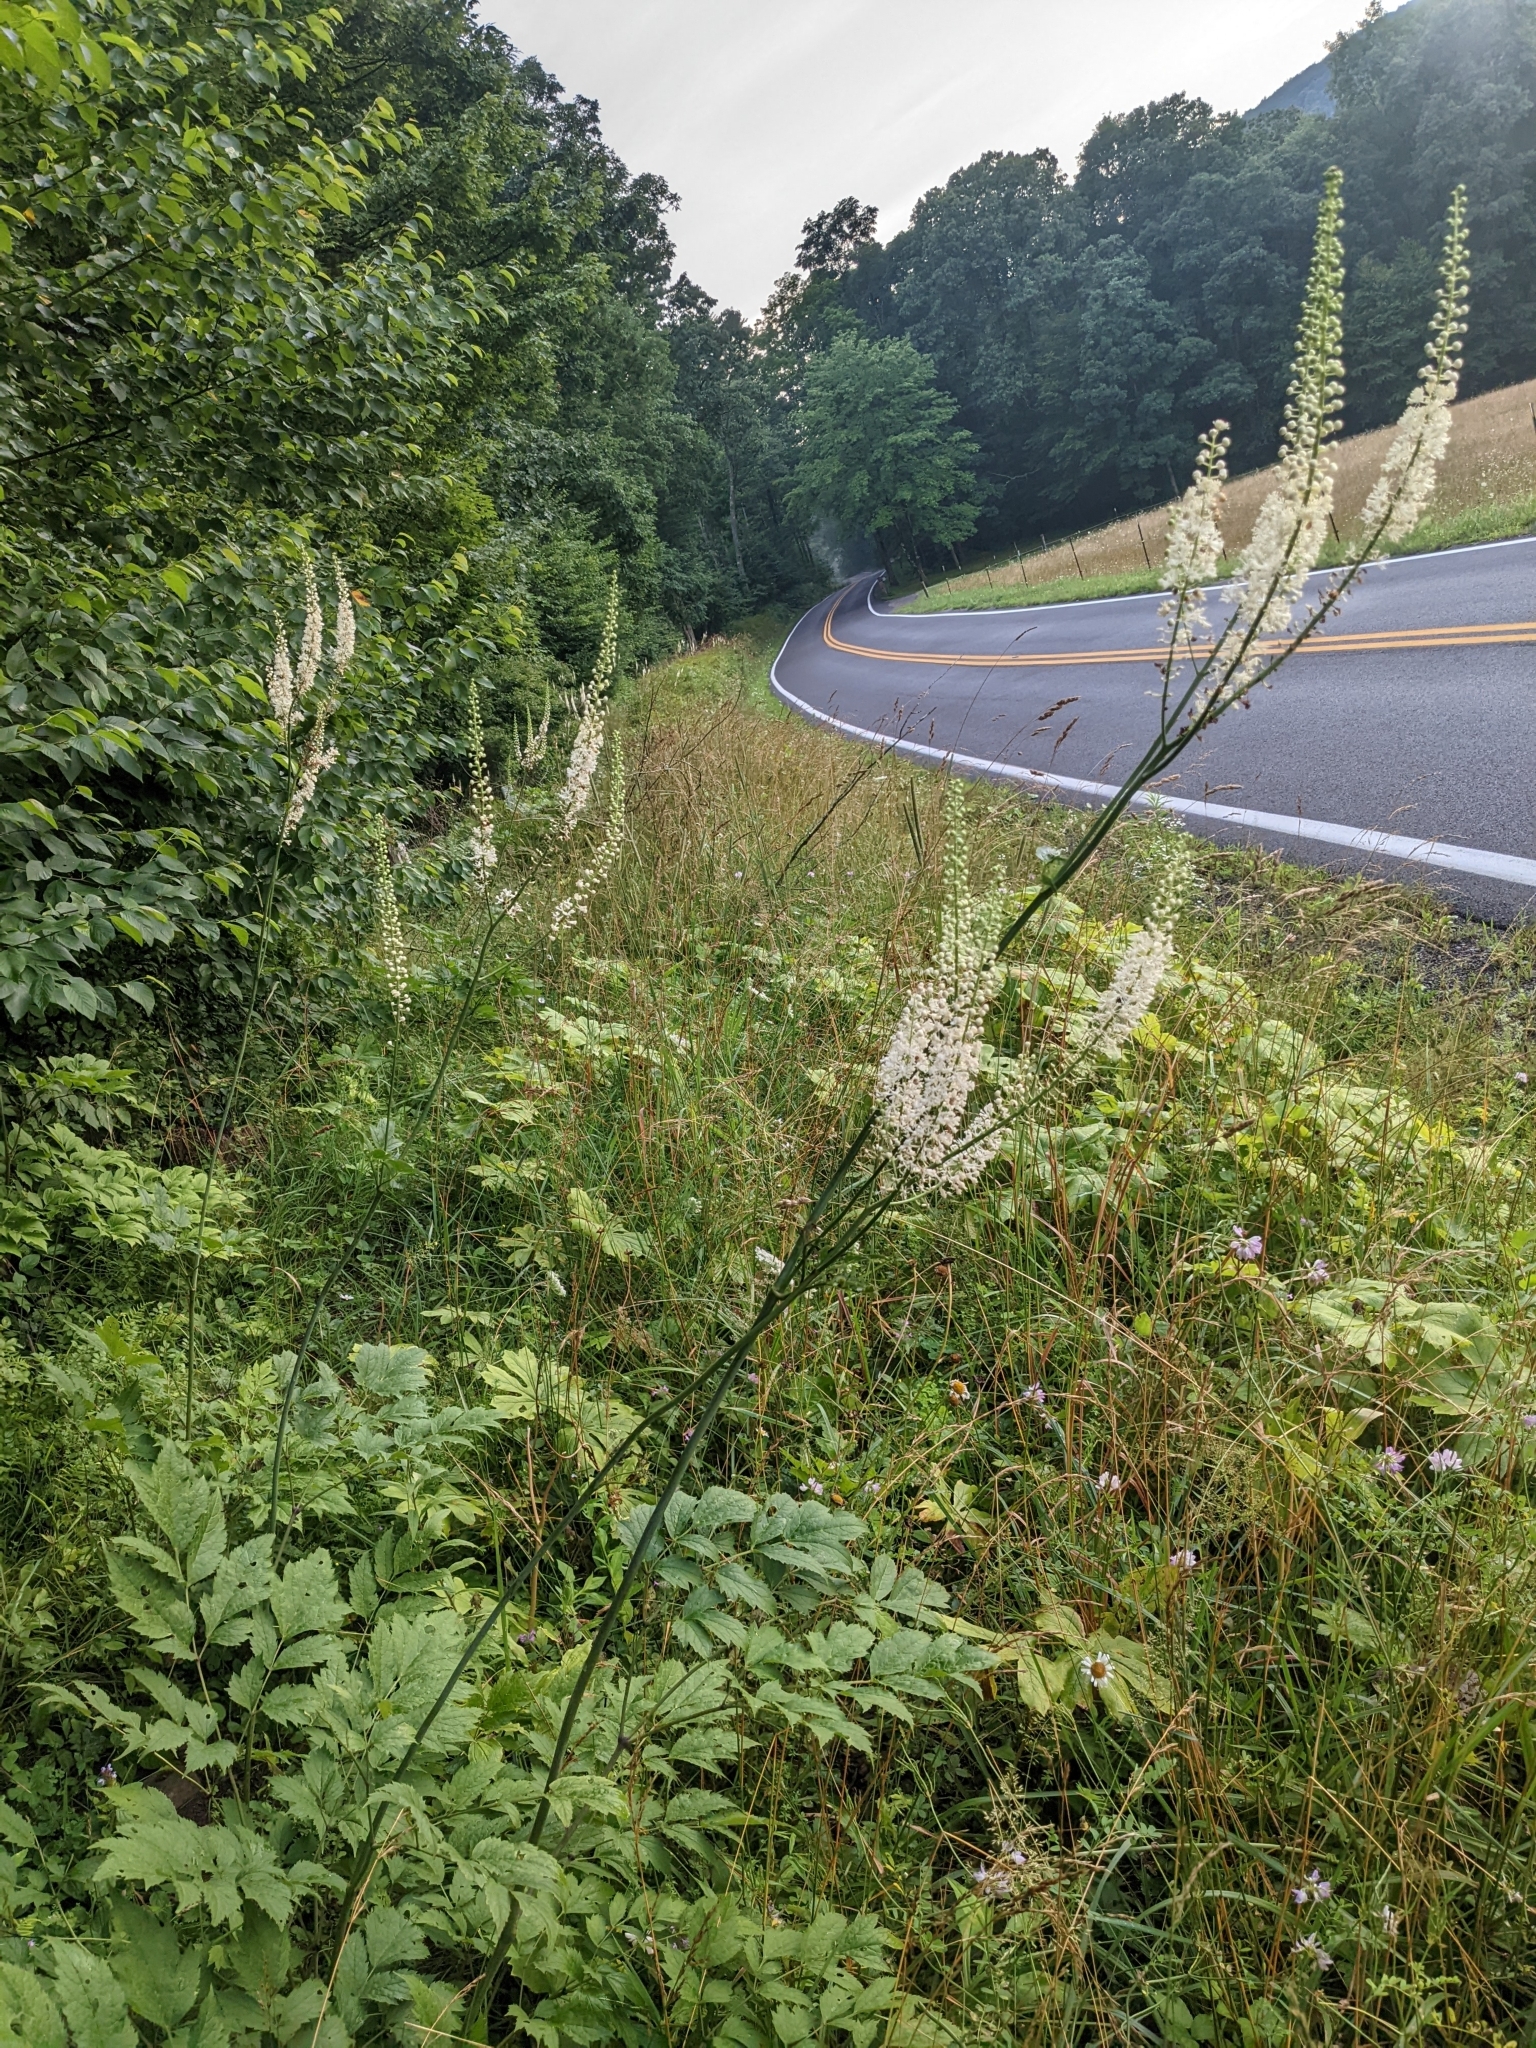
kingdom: Plantae
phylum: Tracheophyta
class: Magnoliopsida
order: Ranunculales
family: Ranunculaceae
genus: Actaea
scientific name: Actaea racemosa
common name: Black cohosh
